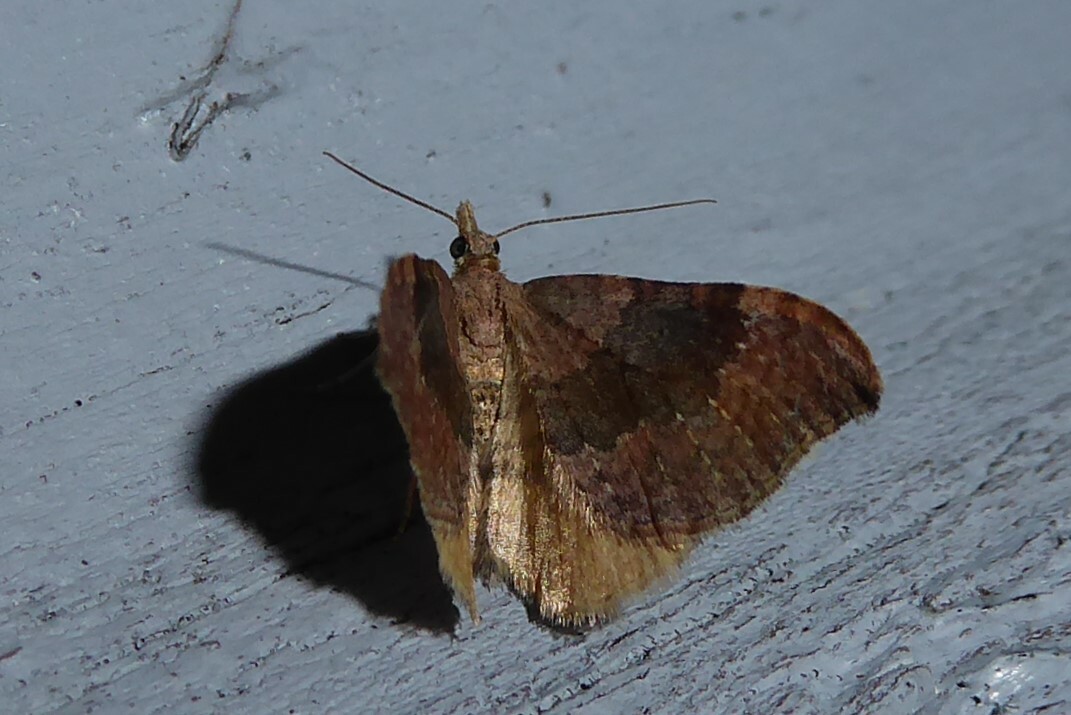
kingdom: Animalia
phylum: Arthropoda
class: Insecta
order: Lepidoptera
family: Geometridae
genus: Homodotis
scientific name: Homodotis megaspilata
